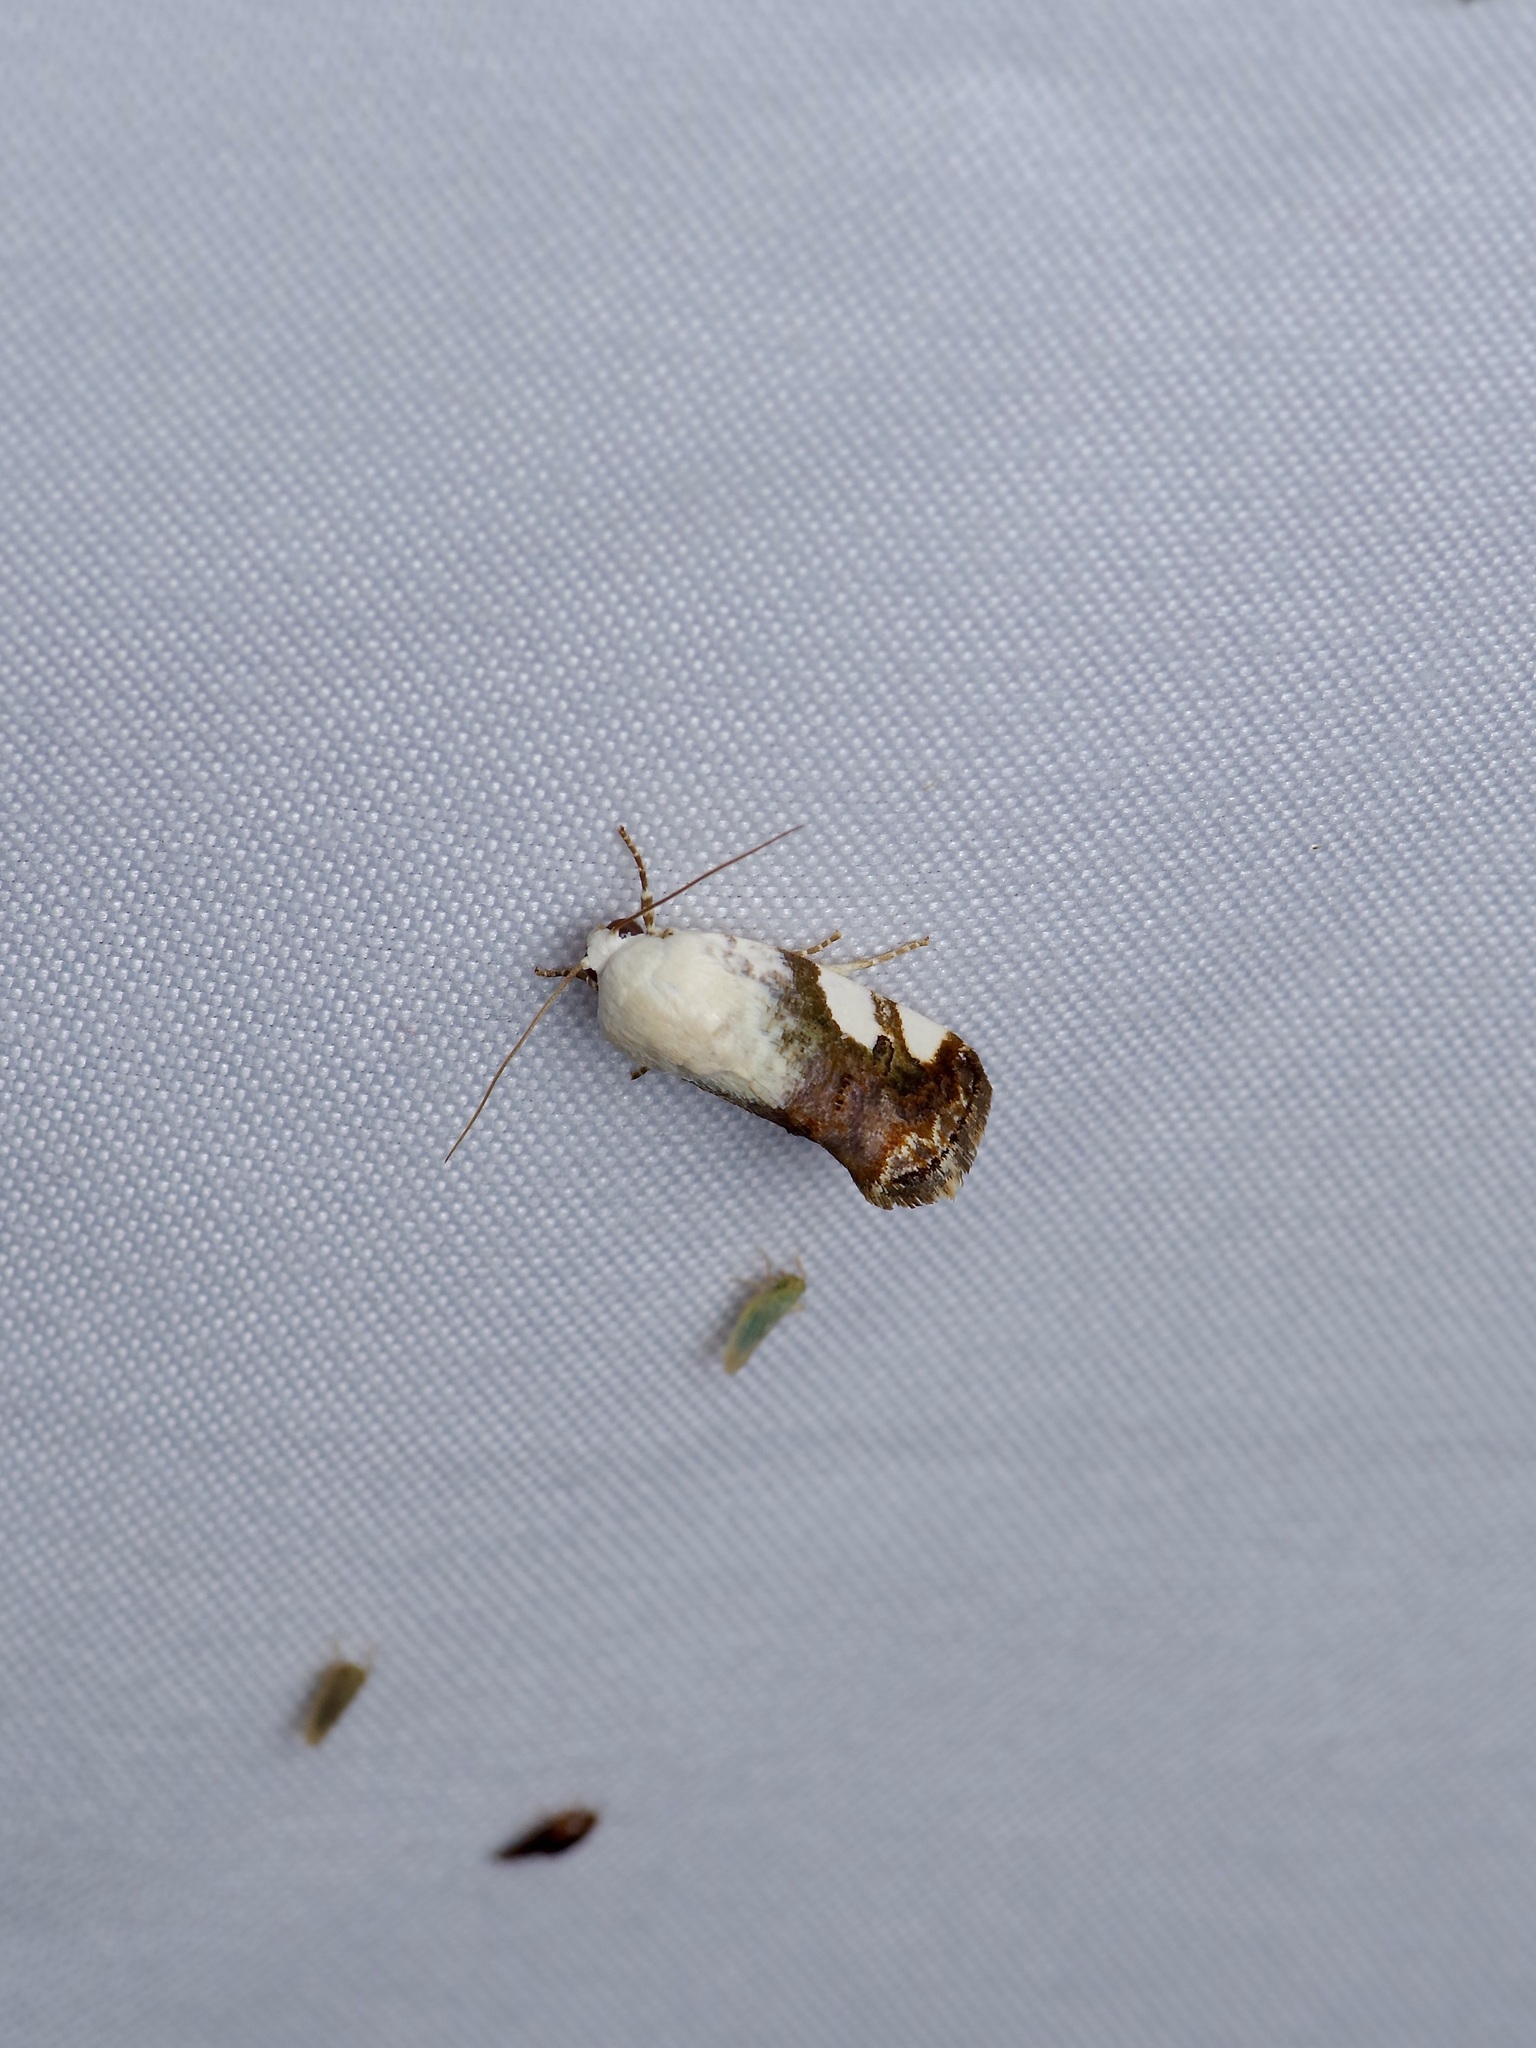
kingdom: Animalia
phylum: Arthropoda
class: Insecta
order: Lepidoptera
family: Noctuidae
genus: Acontia
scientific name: Acontia quadriplaga
